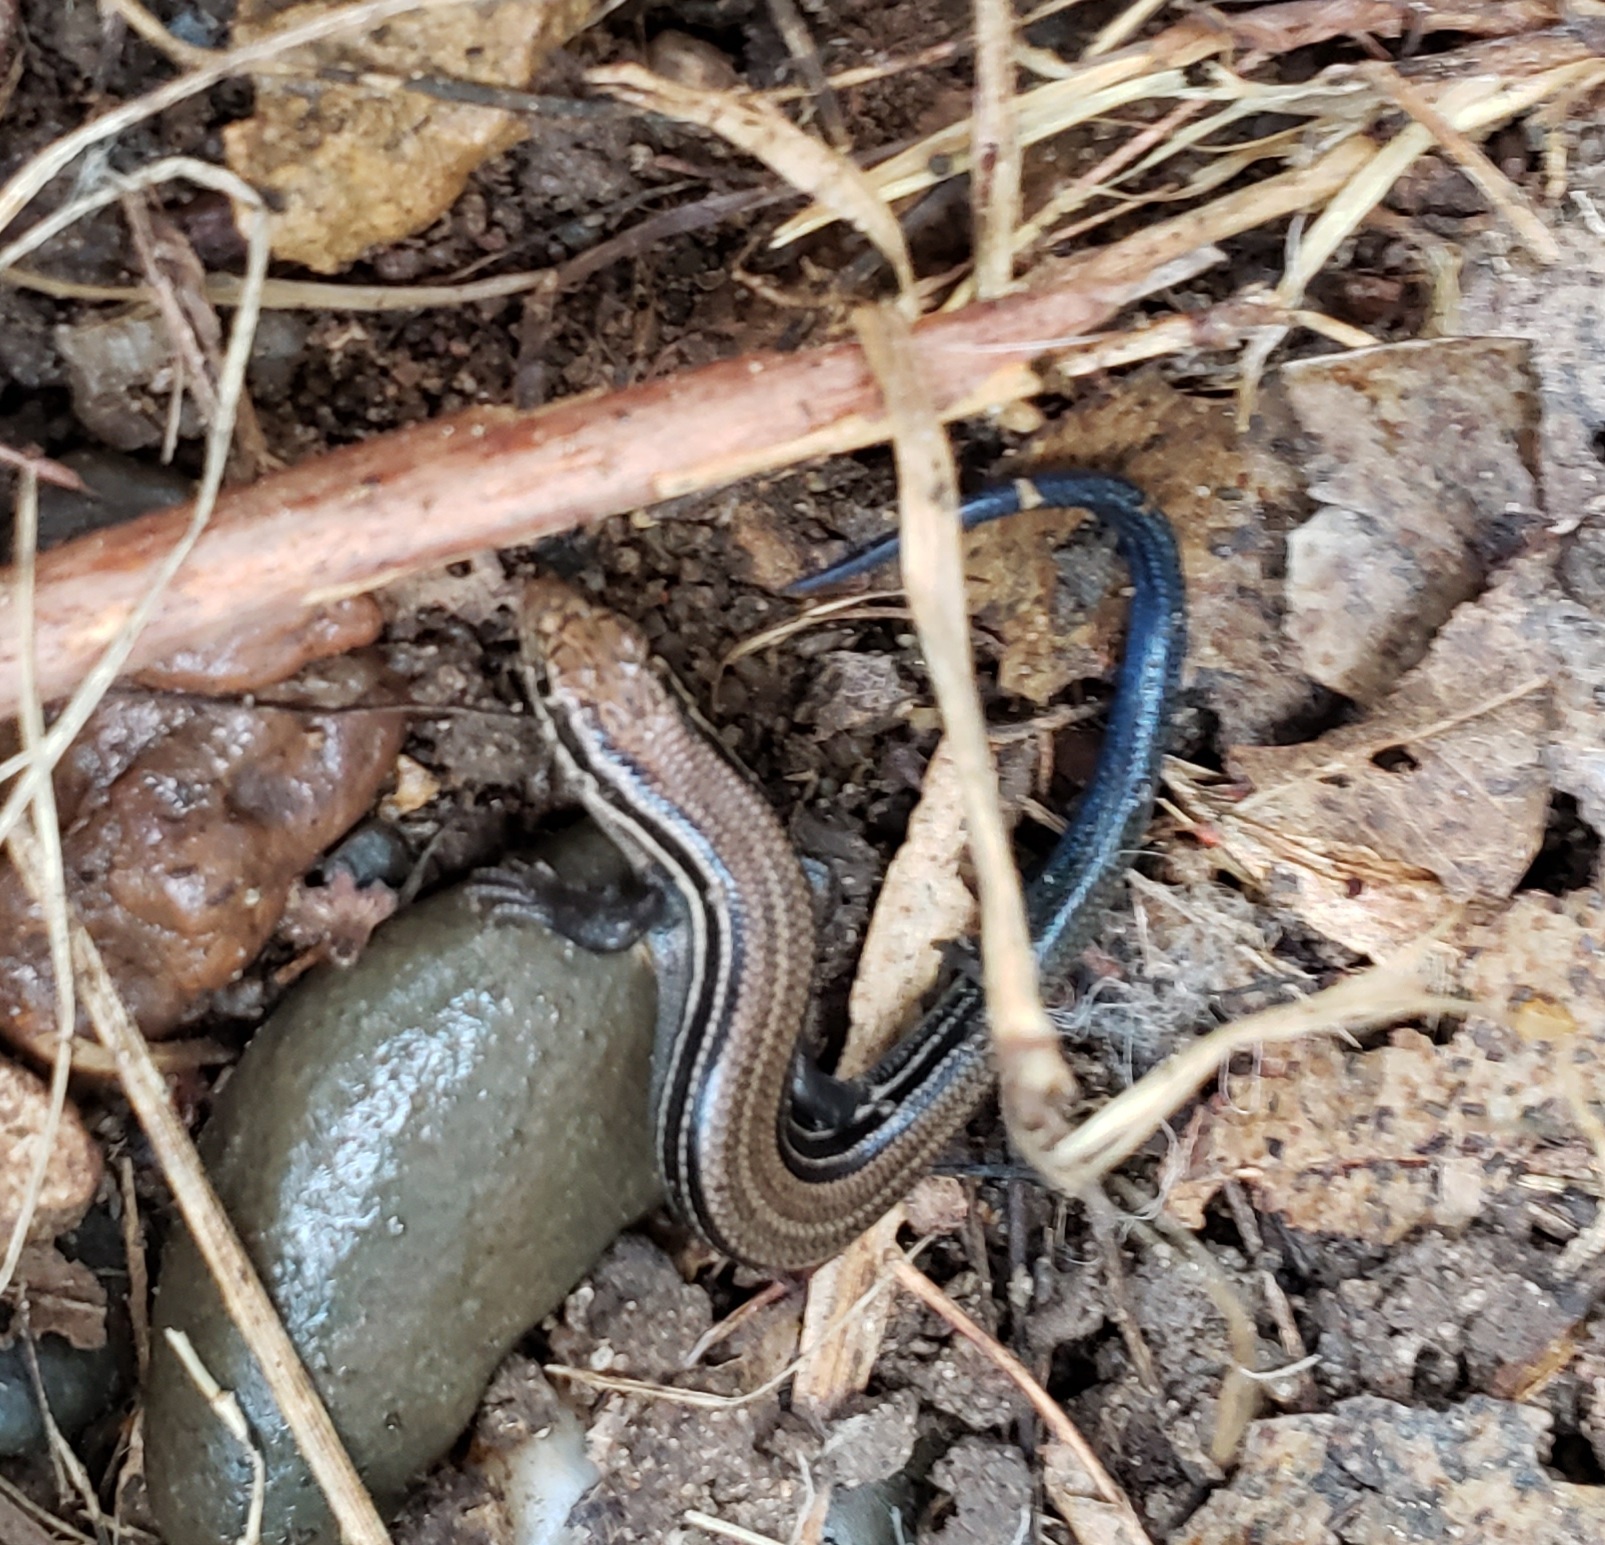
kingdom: Animalia
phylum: Chordata
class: Squamata
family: Scincidae
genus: Plestiodon
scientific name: Plestiodon septentrionalis
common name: Northern prairie skink
